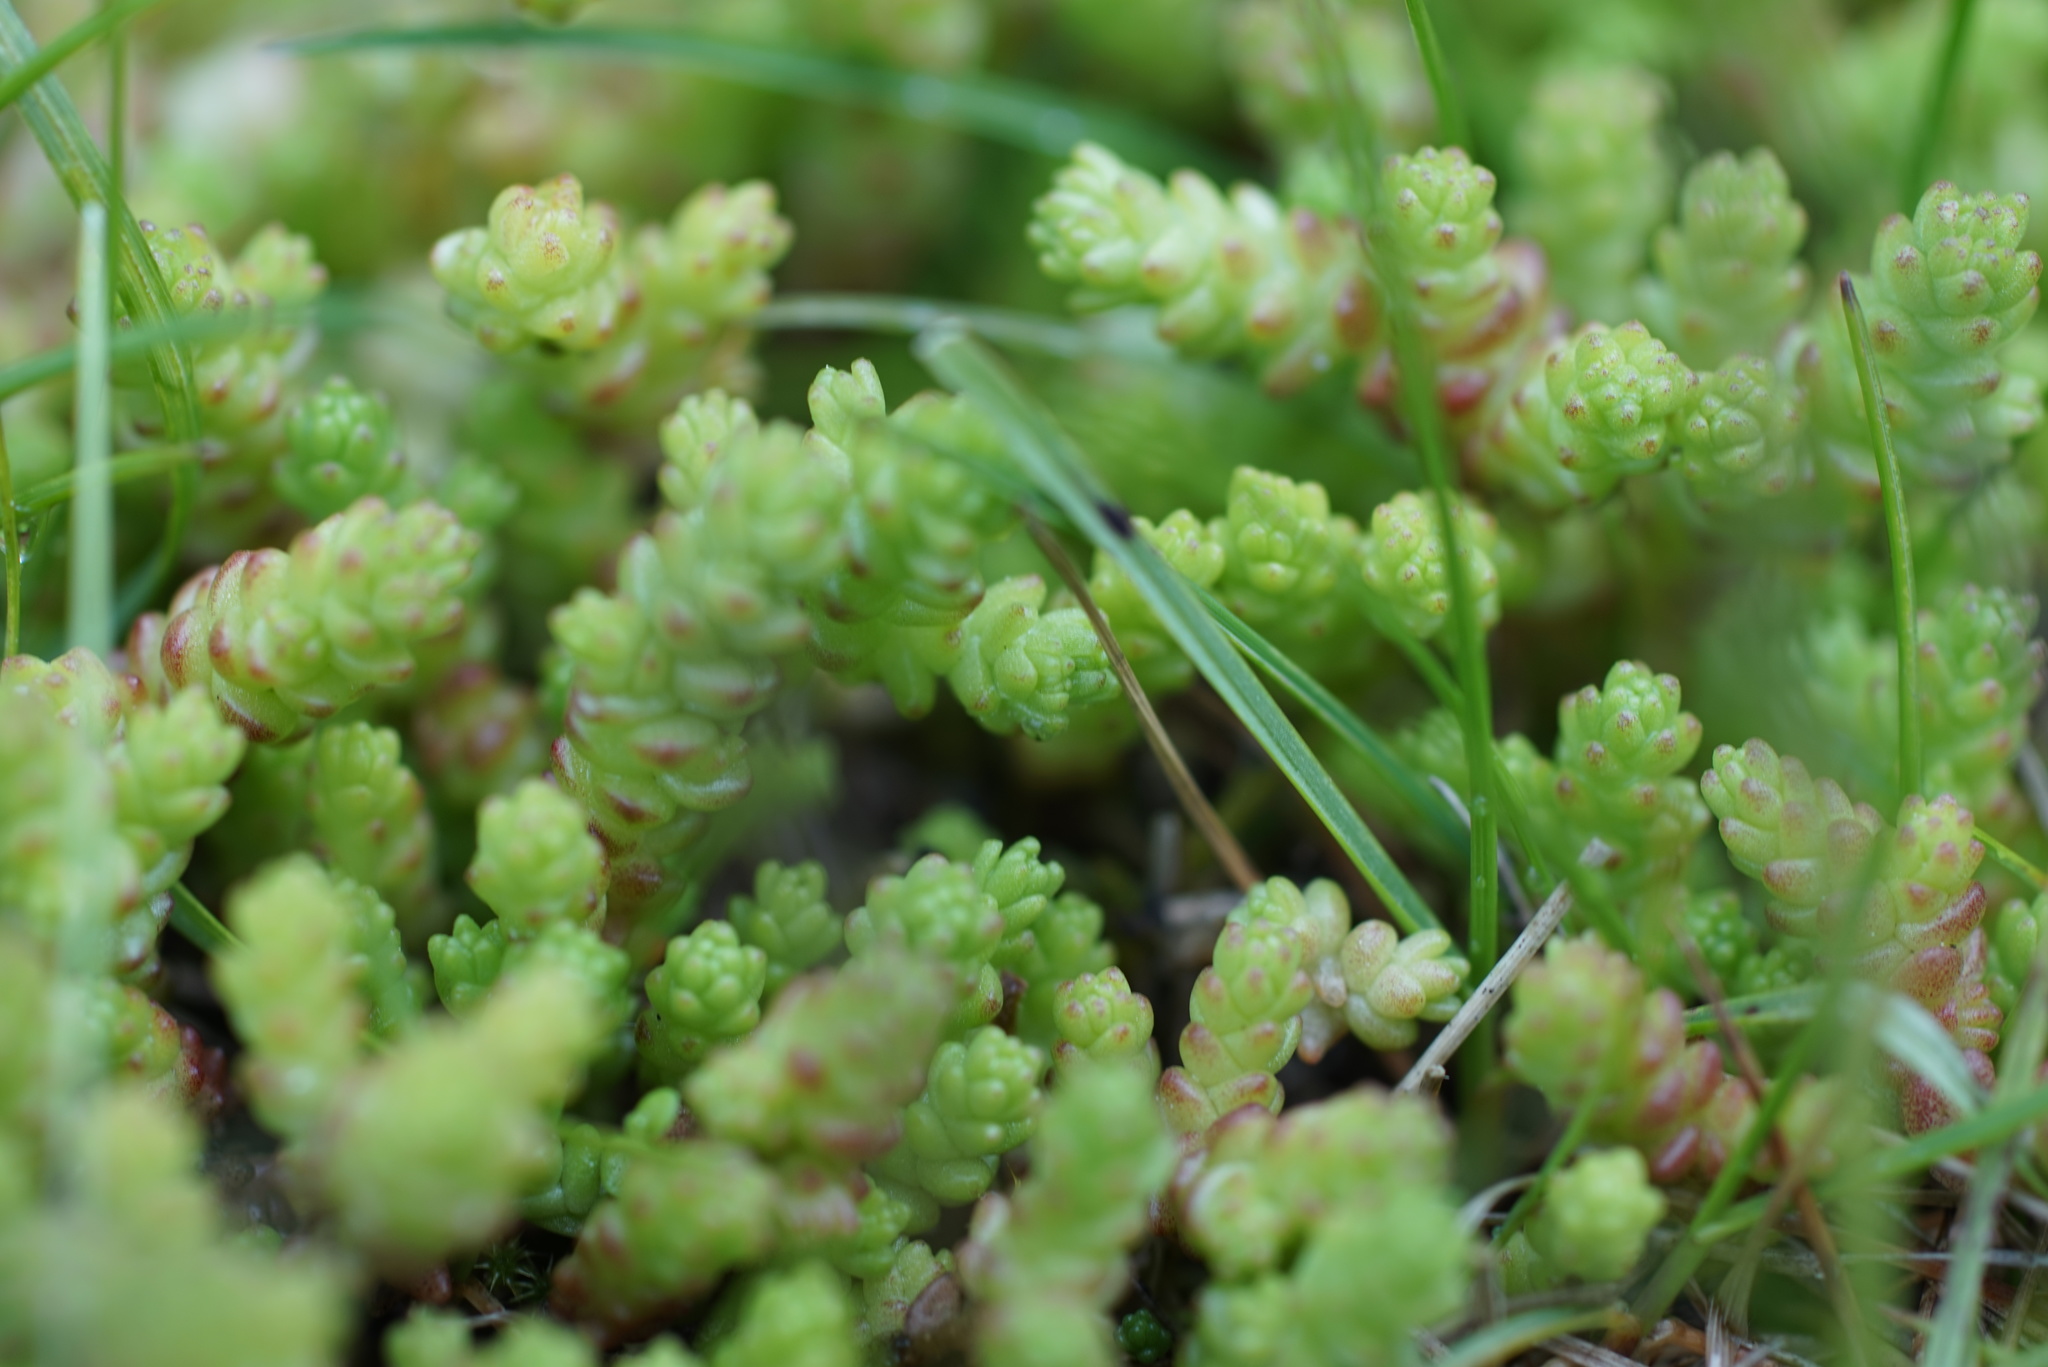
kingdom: Plantae
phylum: Tracheophyta
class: Magnoliopsida
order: Saxifragales
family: Crassulaceae
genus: Sedum
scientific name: Sedum acre
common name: Biting stonecrop
